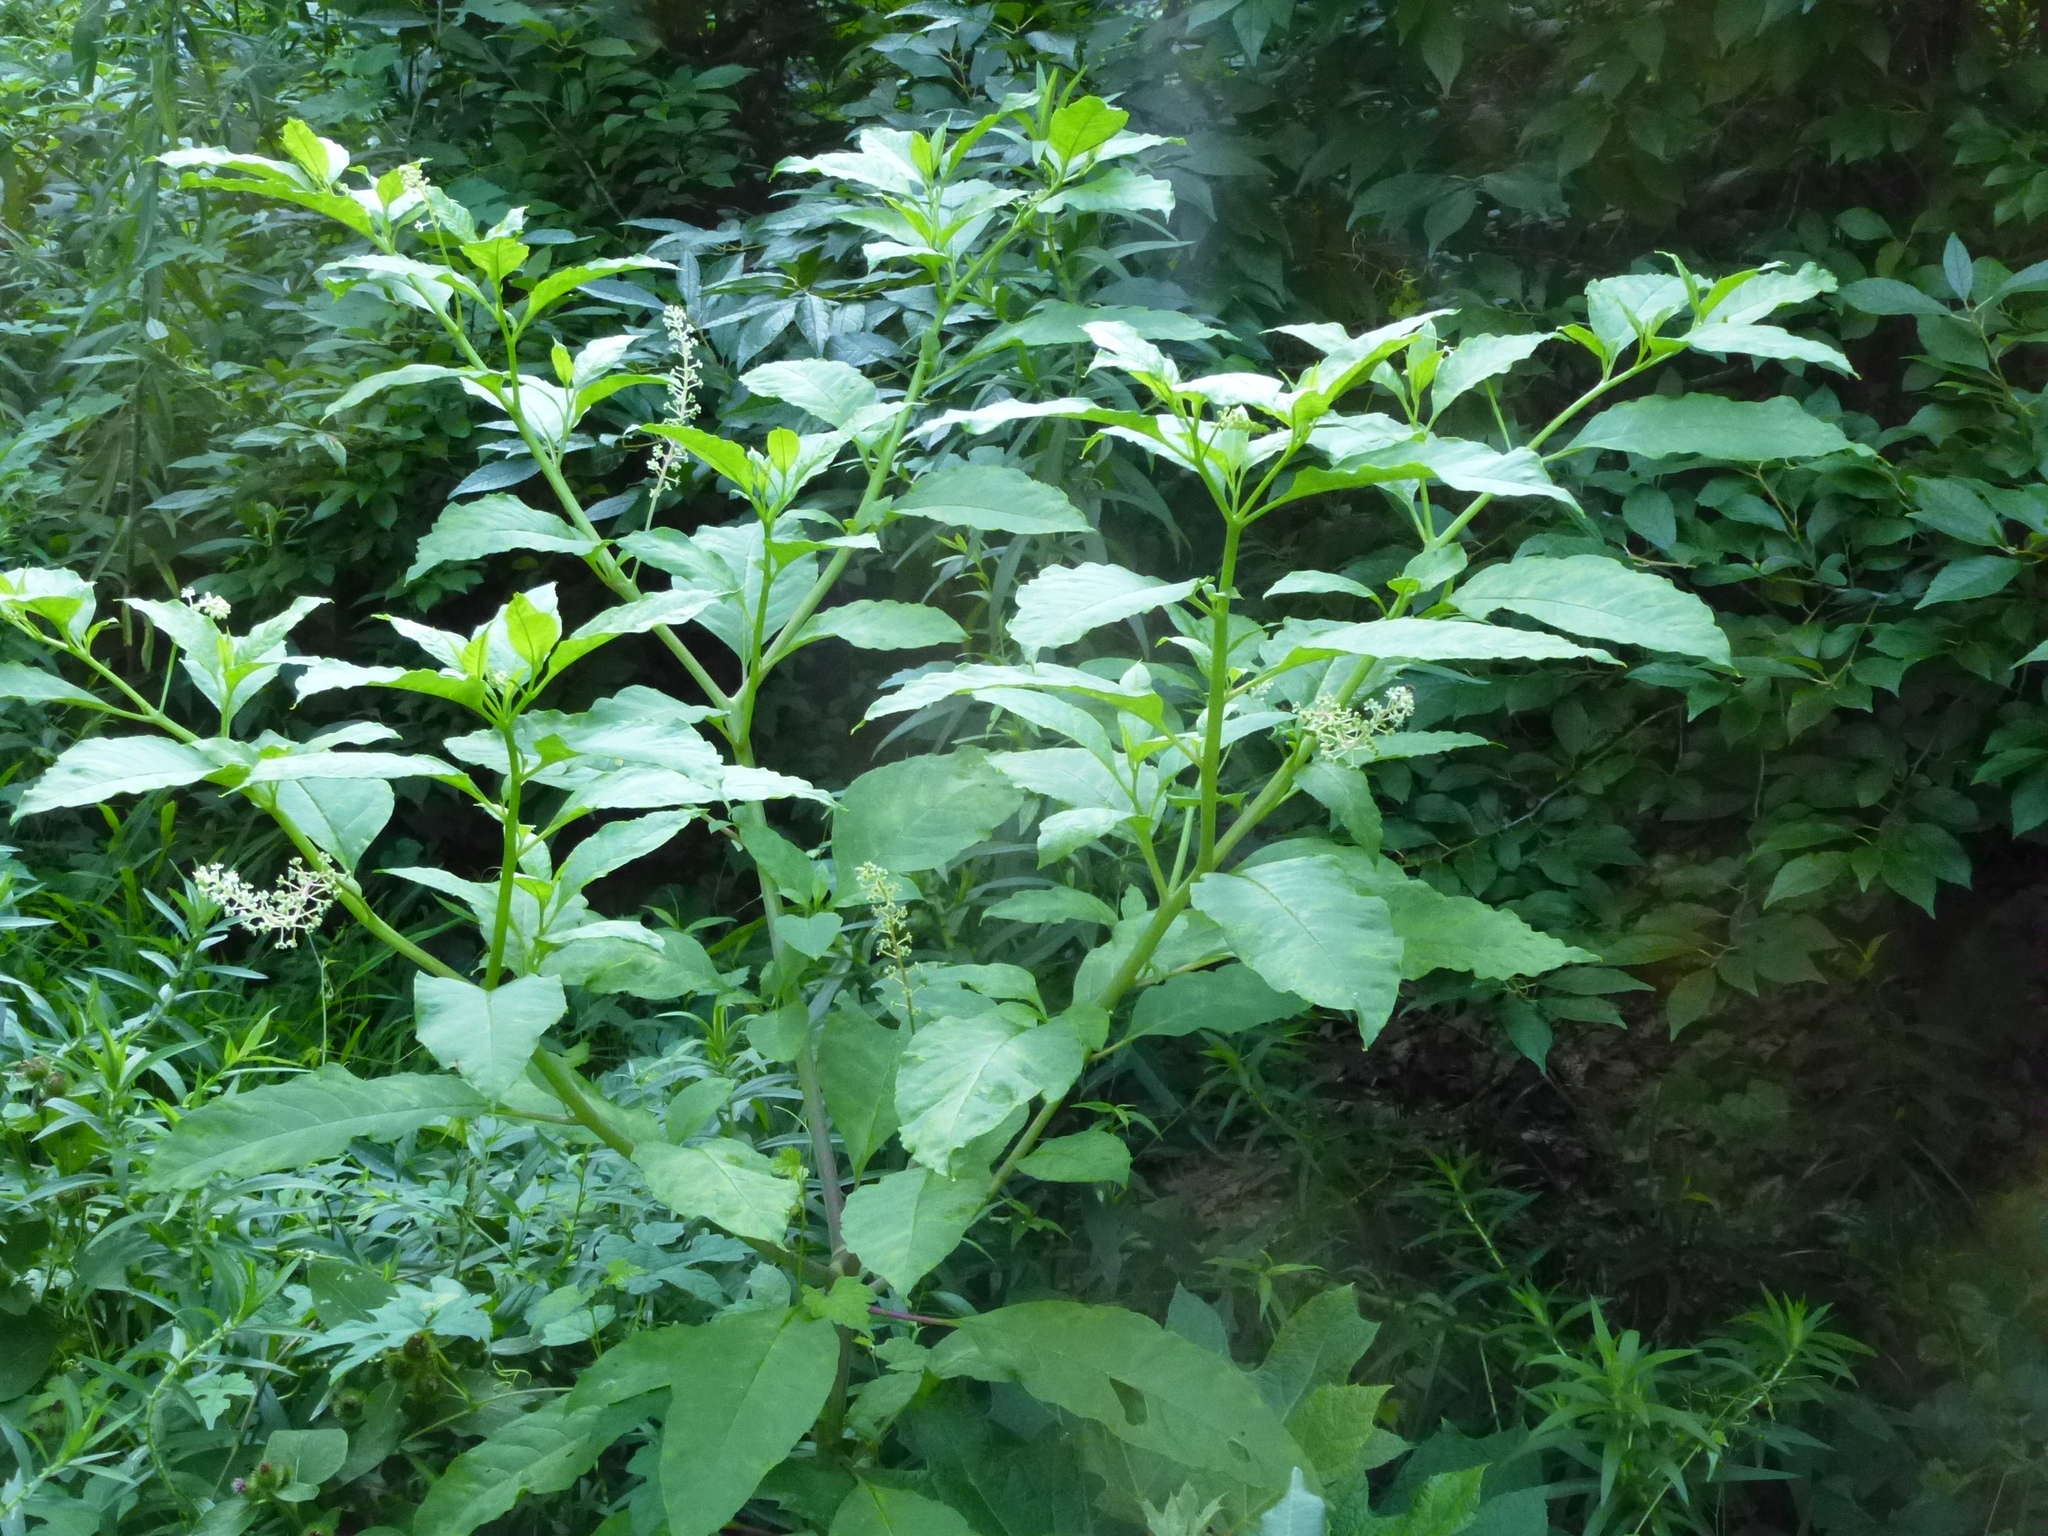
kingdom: Plantae
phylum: Tracheophyta
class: Magnoliopsida
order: Caryophyllales
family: Phytolaccaceae
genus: Phytolacca
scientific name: Phytolacca americana
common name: American pokeweed
